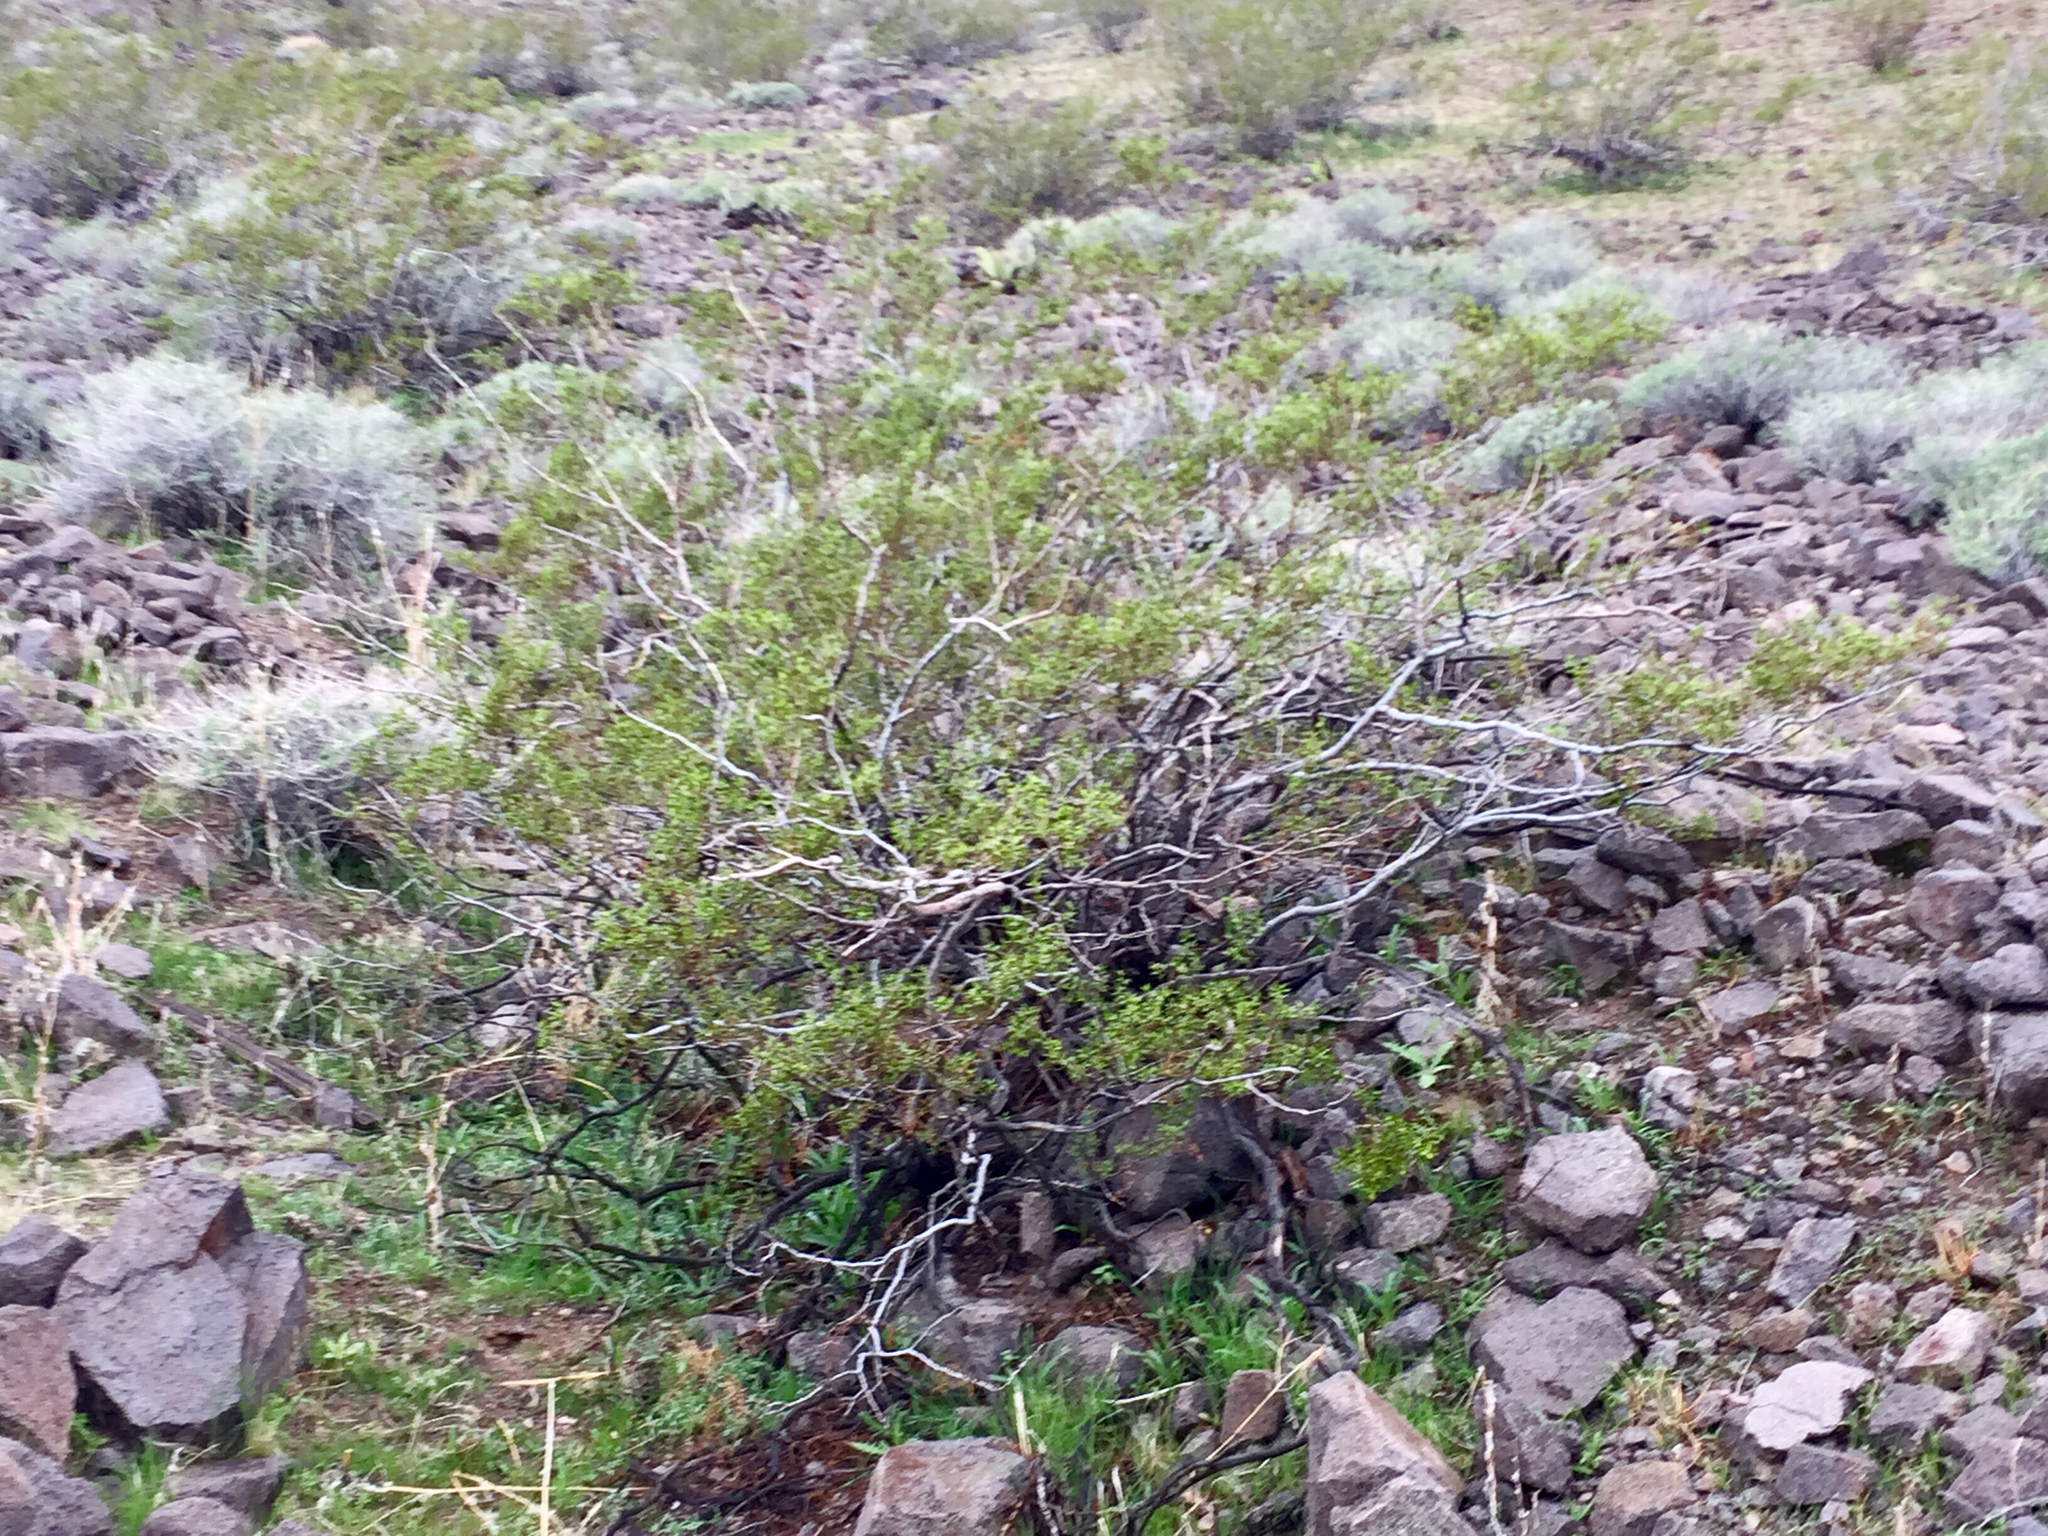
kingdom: Plantae
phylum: Tracheophyta
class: Magnoliopsida
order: Zygophyllales
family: Zygophyllaceae
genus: Larrea
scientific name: Larrea tridentata
